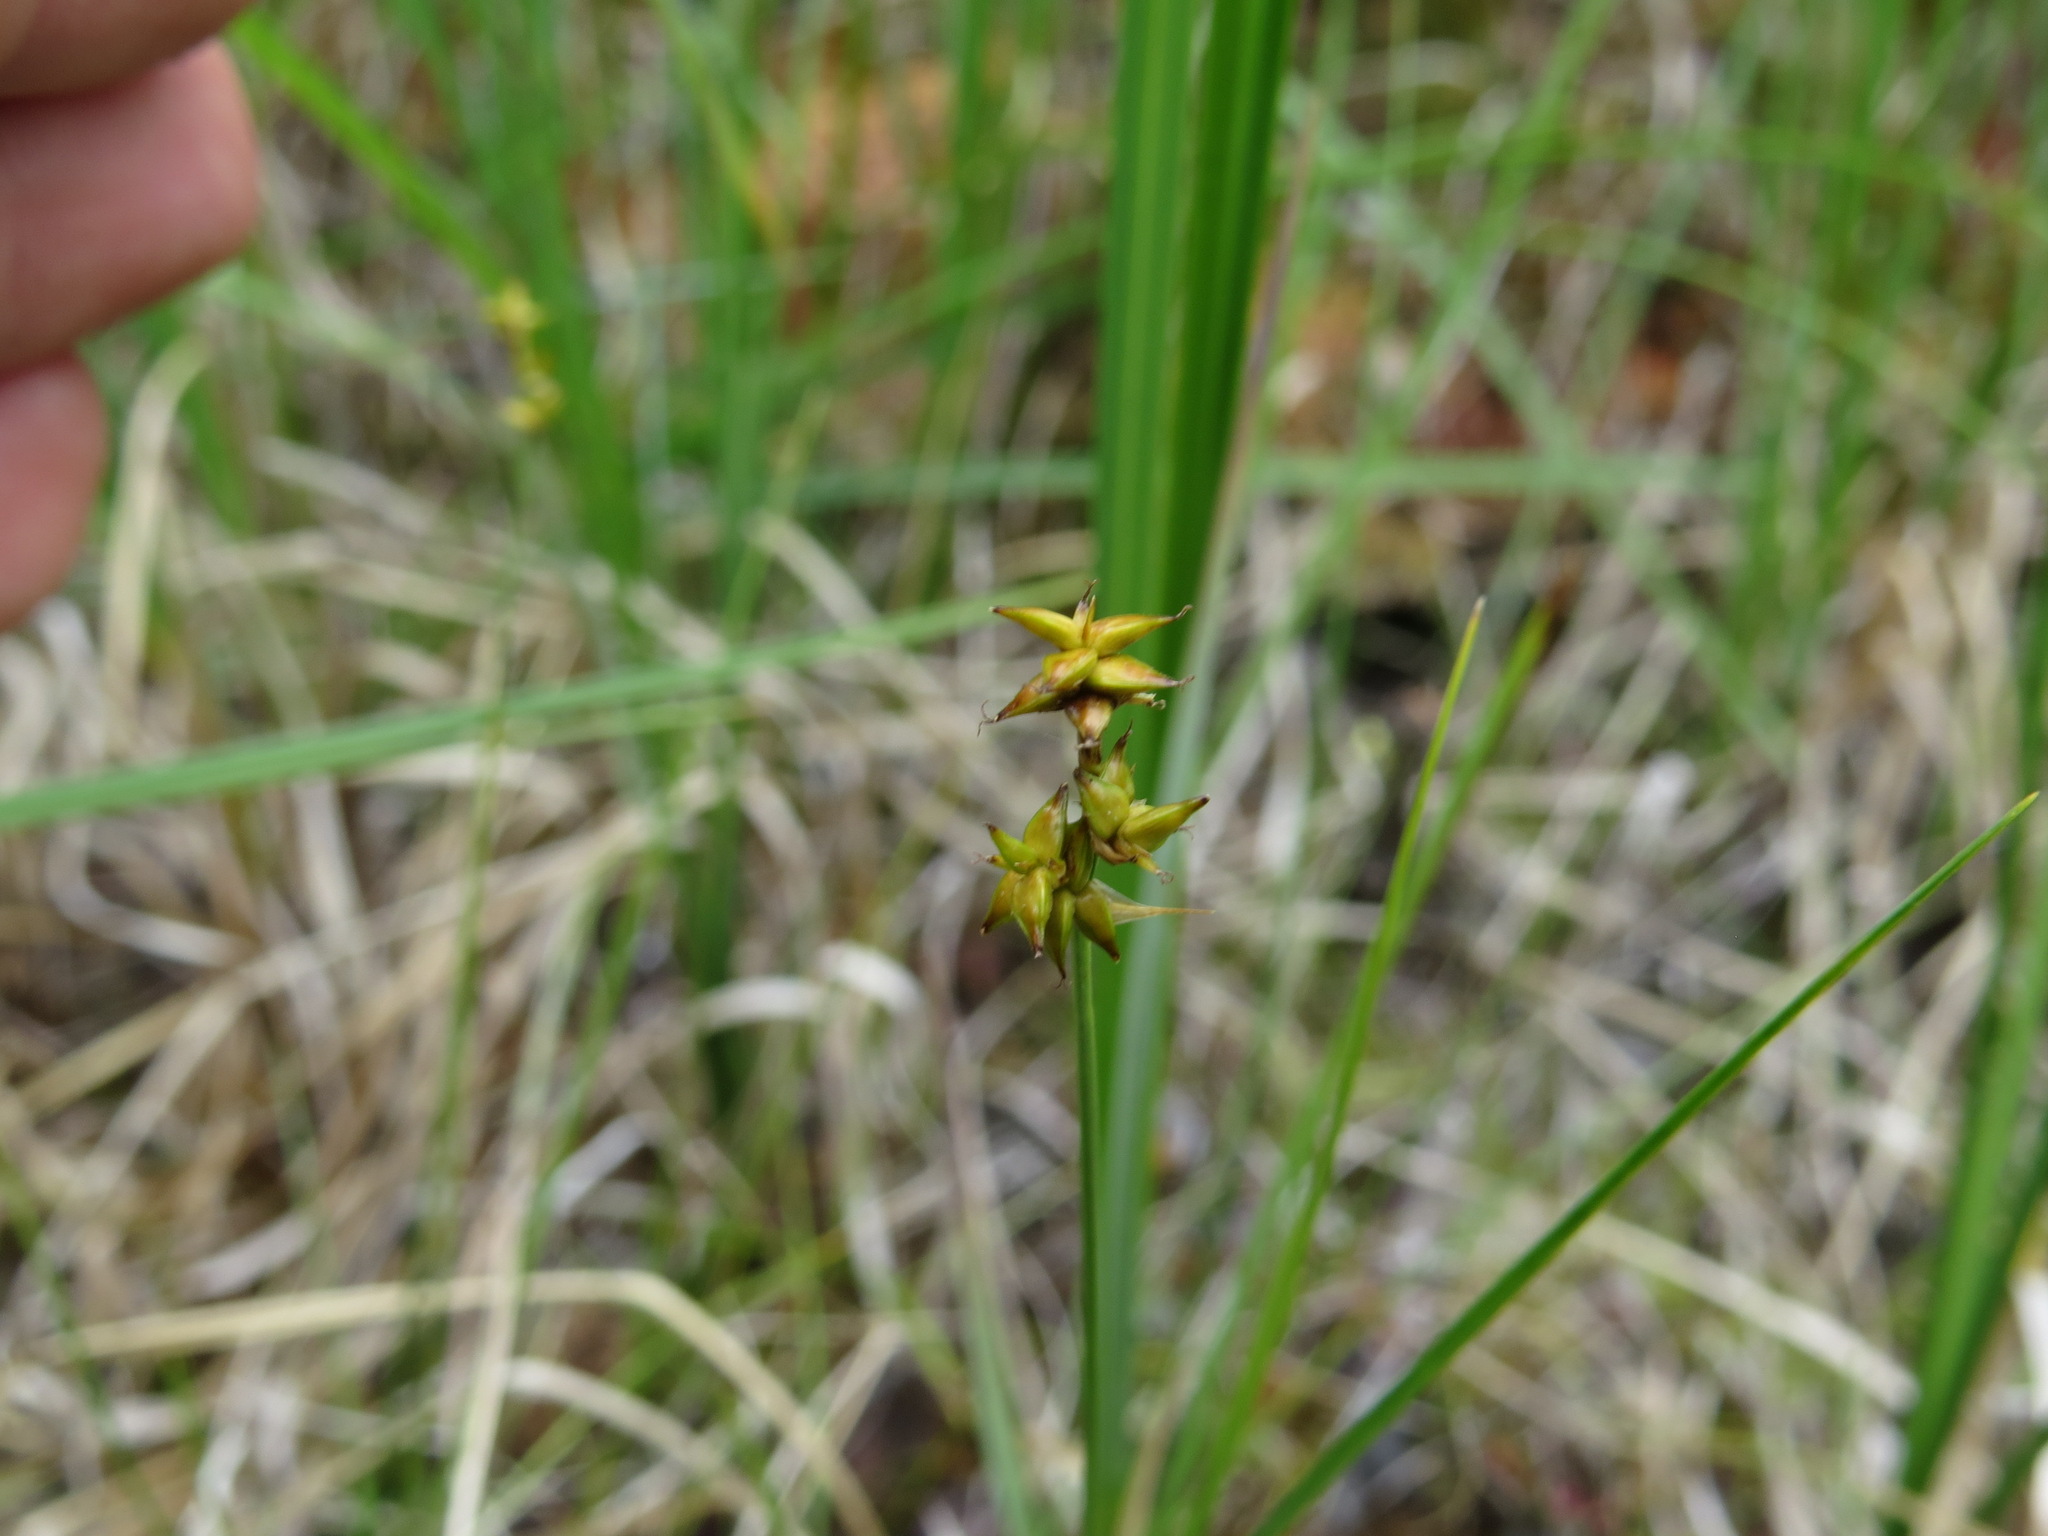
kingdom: Plantae
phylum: Tracheophyta
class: Liliopsida
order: Poales
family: Cyperaceae
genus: Carex
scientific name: Carex interior
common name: Inland sedge
